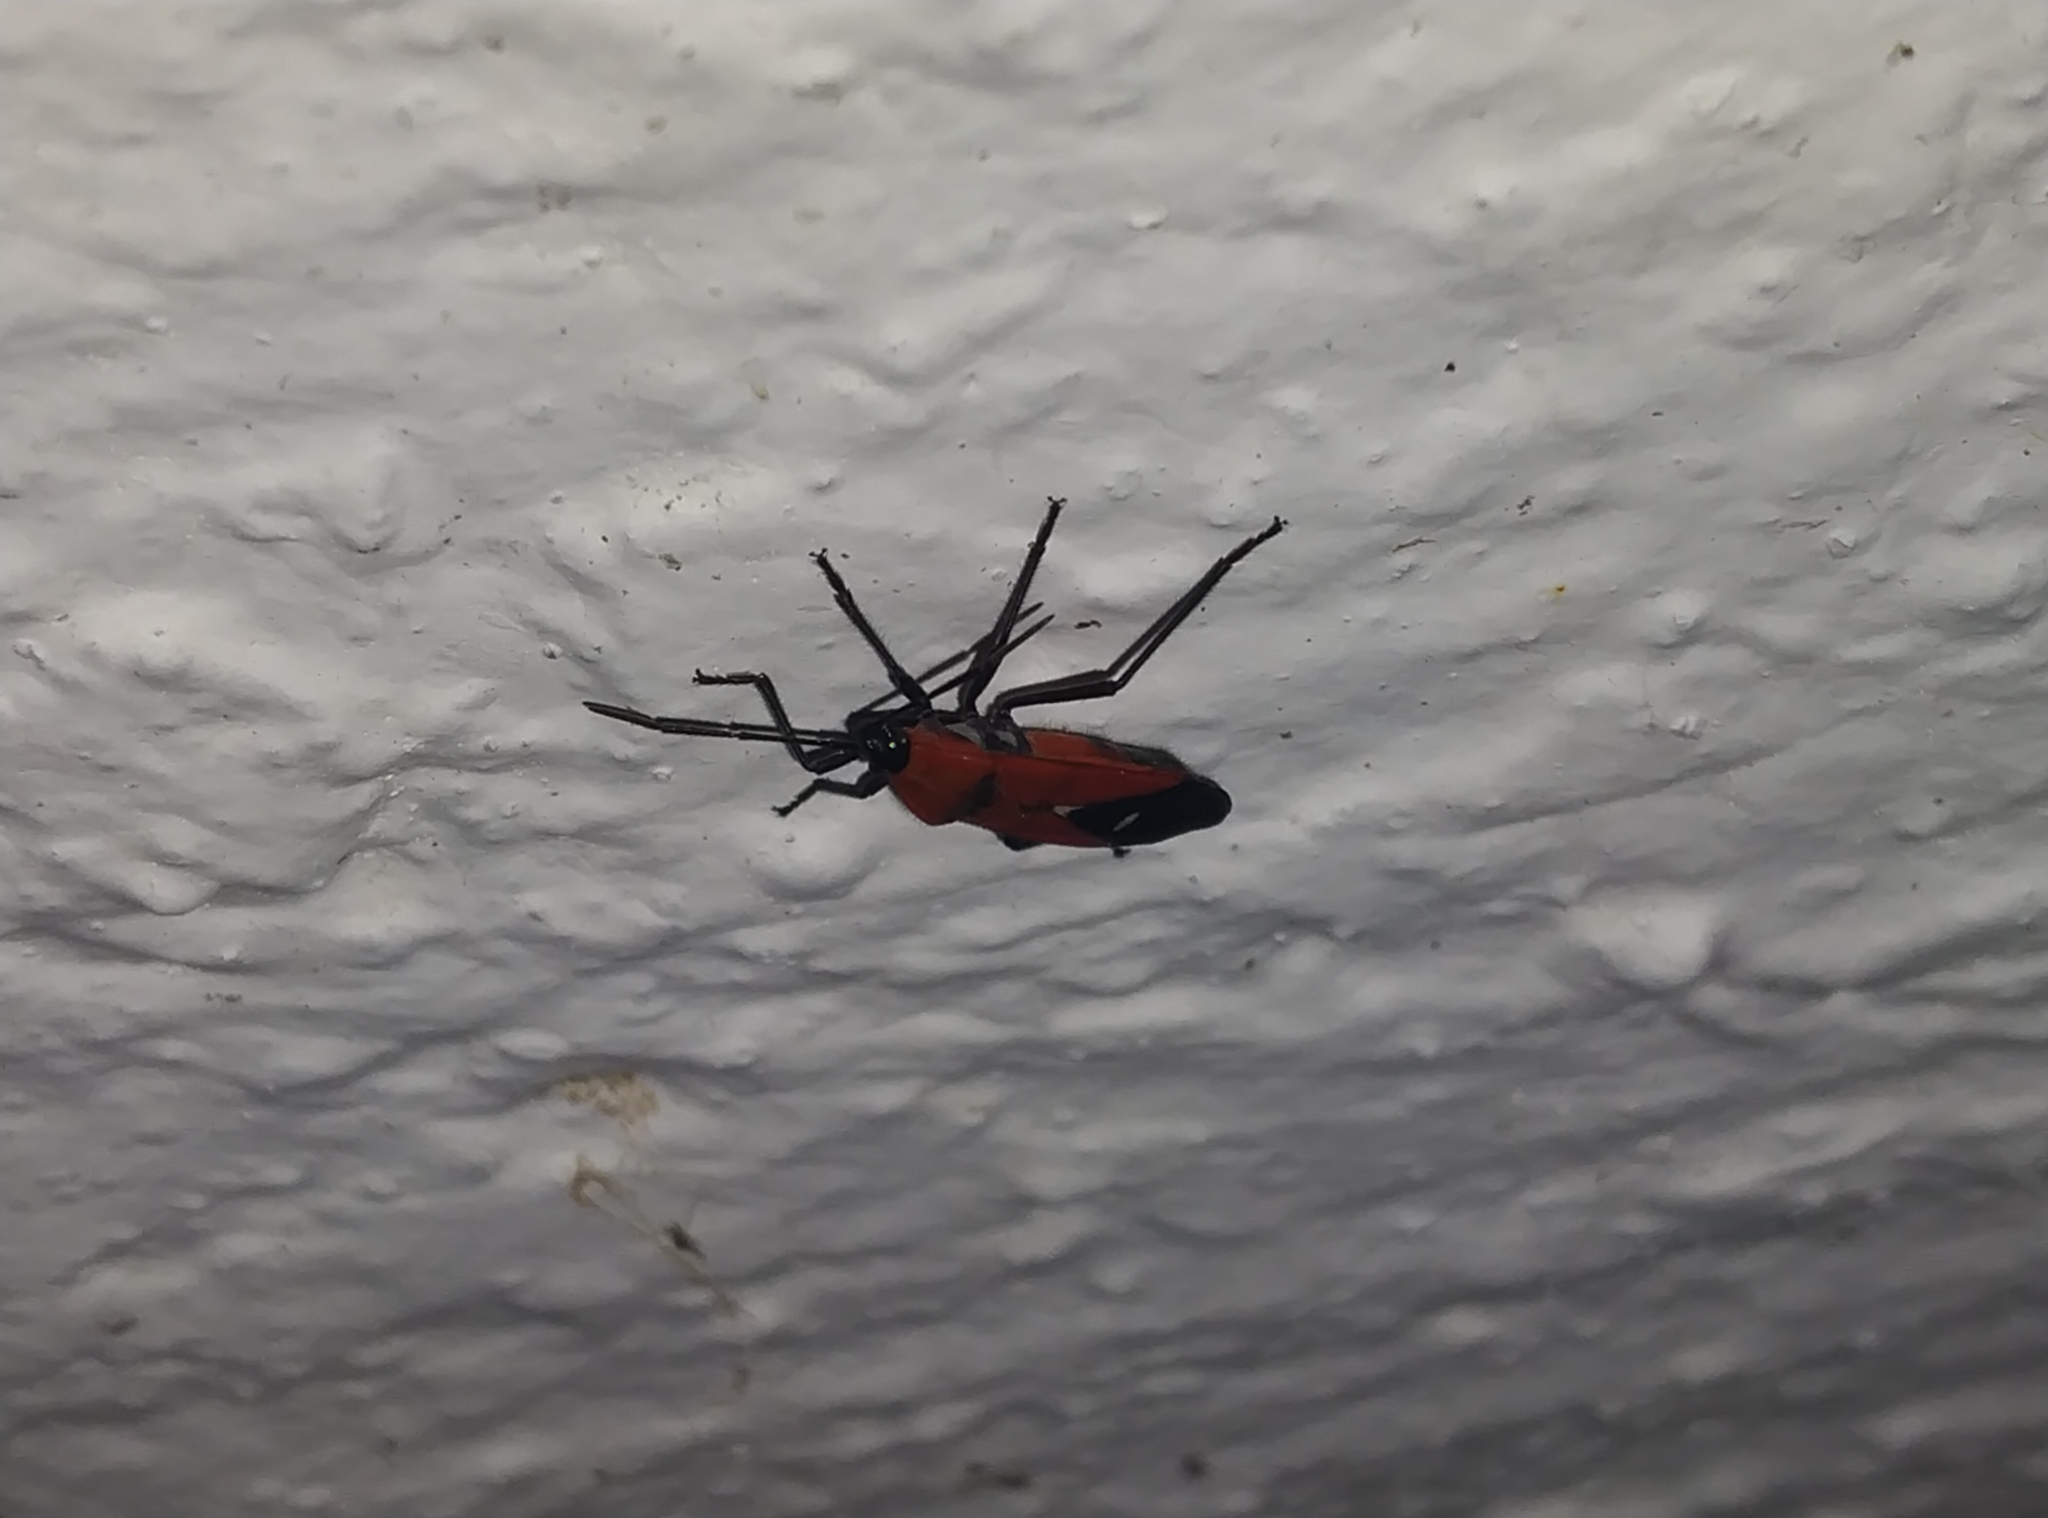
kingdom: Animalia
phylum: Arthropoda
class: Insecta
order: Hemiptera
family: Lygaeidae
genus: Oncopeltus
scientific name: Oncopeltus nigriceps
